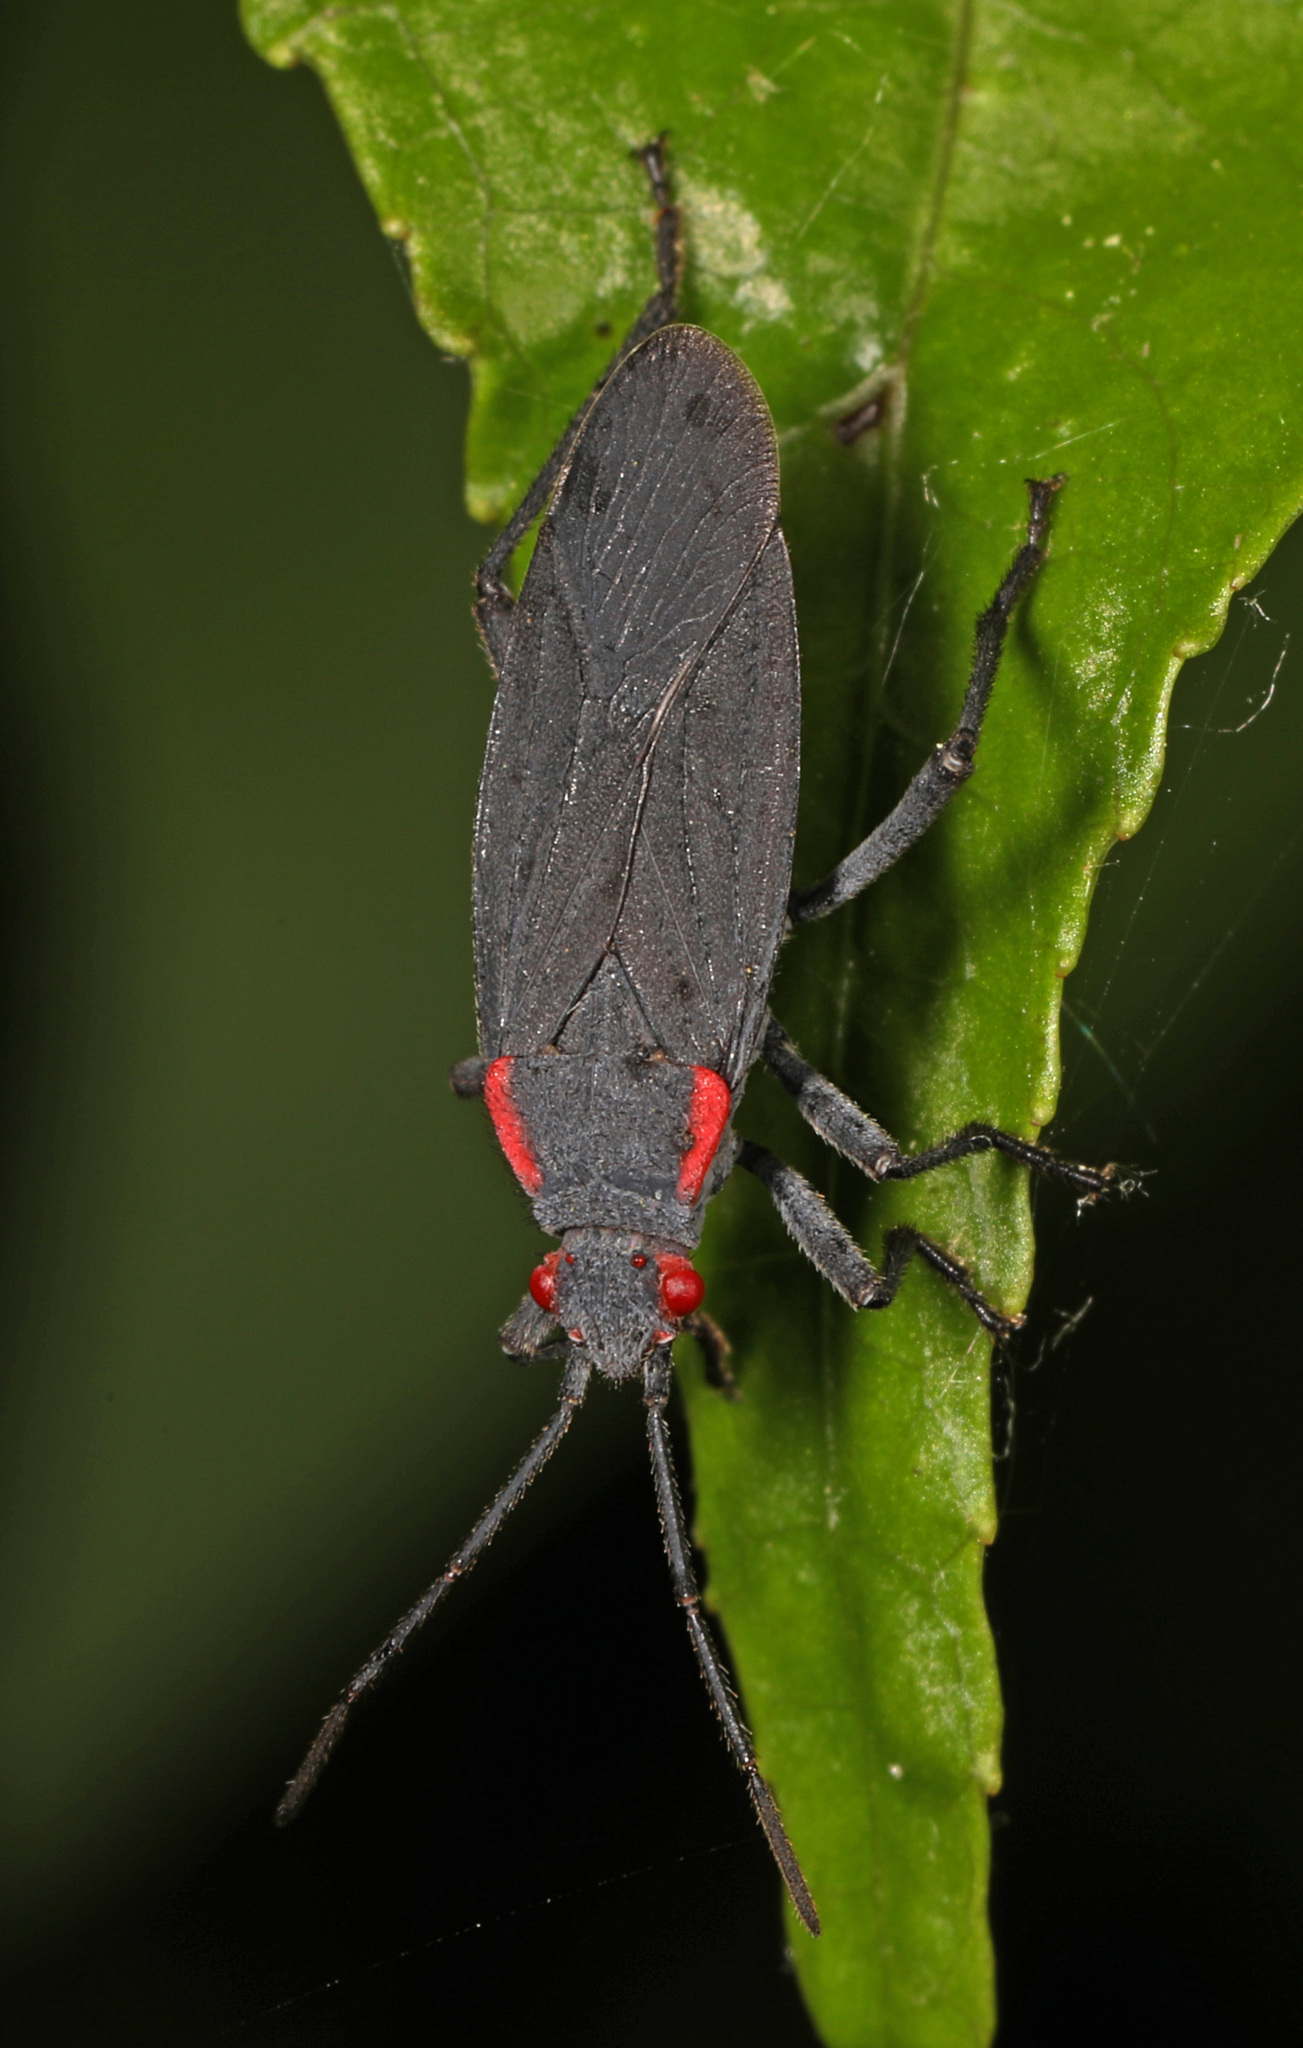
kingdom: Animalia
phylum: Arthropoda
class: Insecta
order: Hemiptera
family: Rhopalidae
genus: Jadera
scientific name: Jadera haematoloma
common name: Red-shouldered bug
